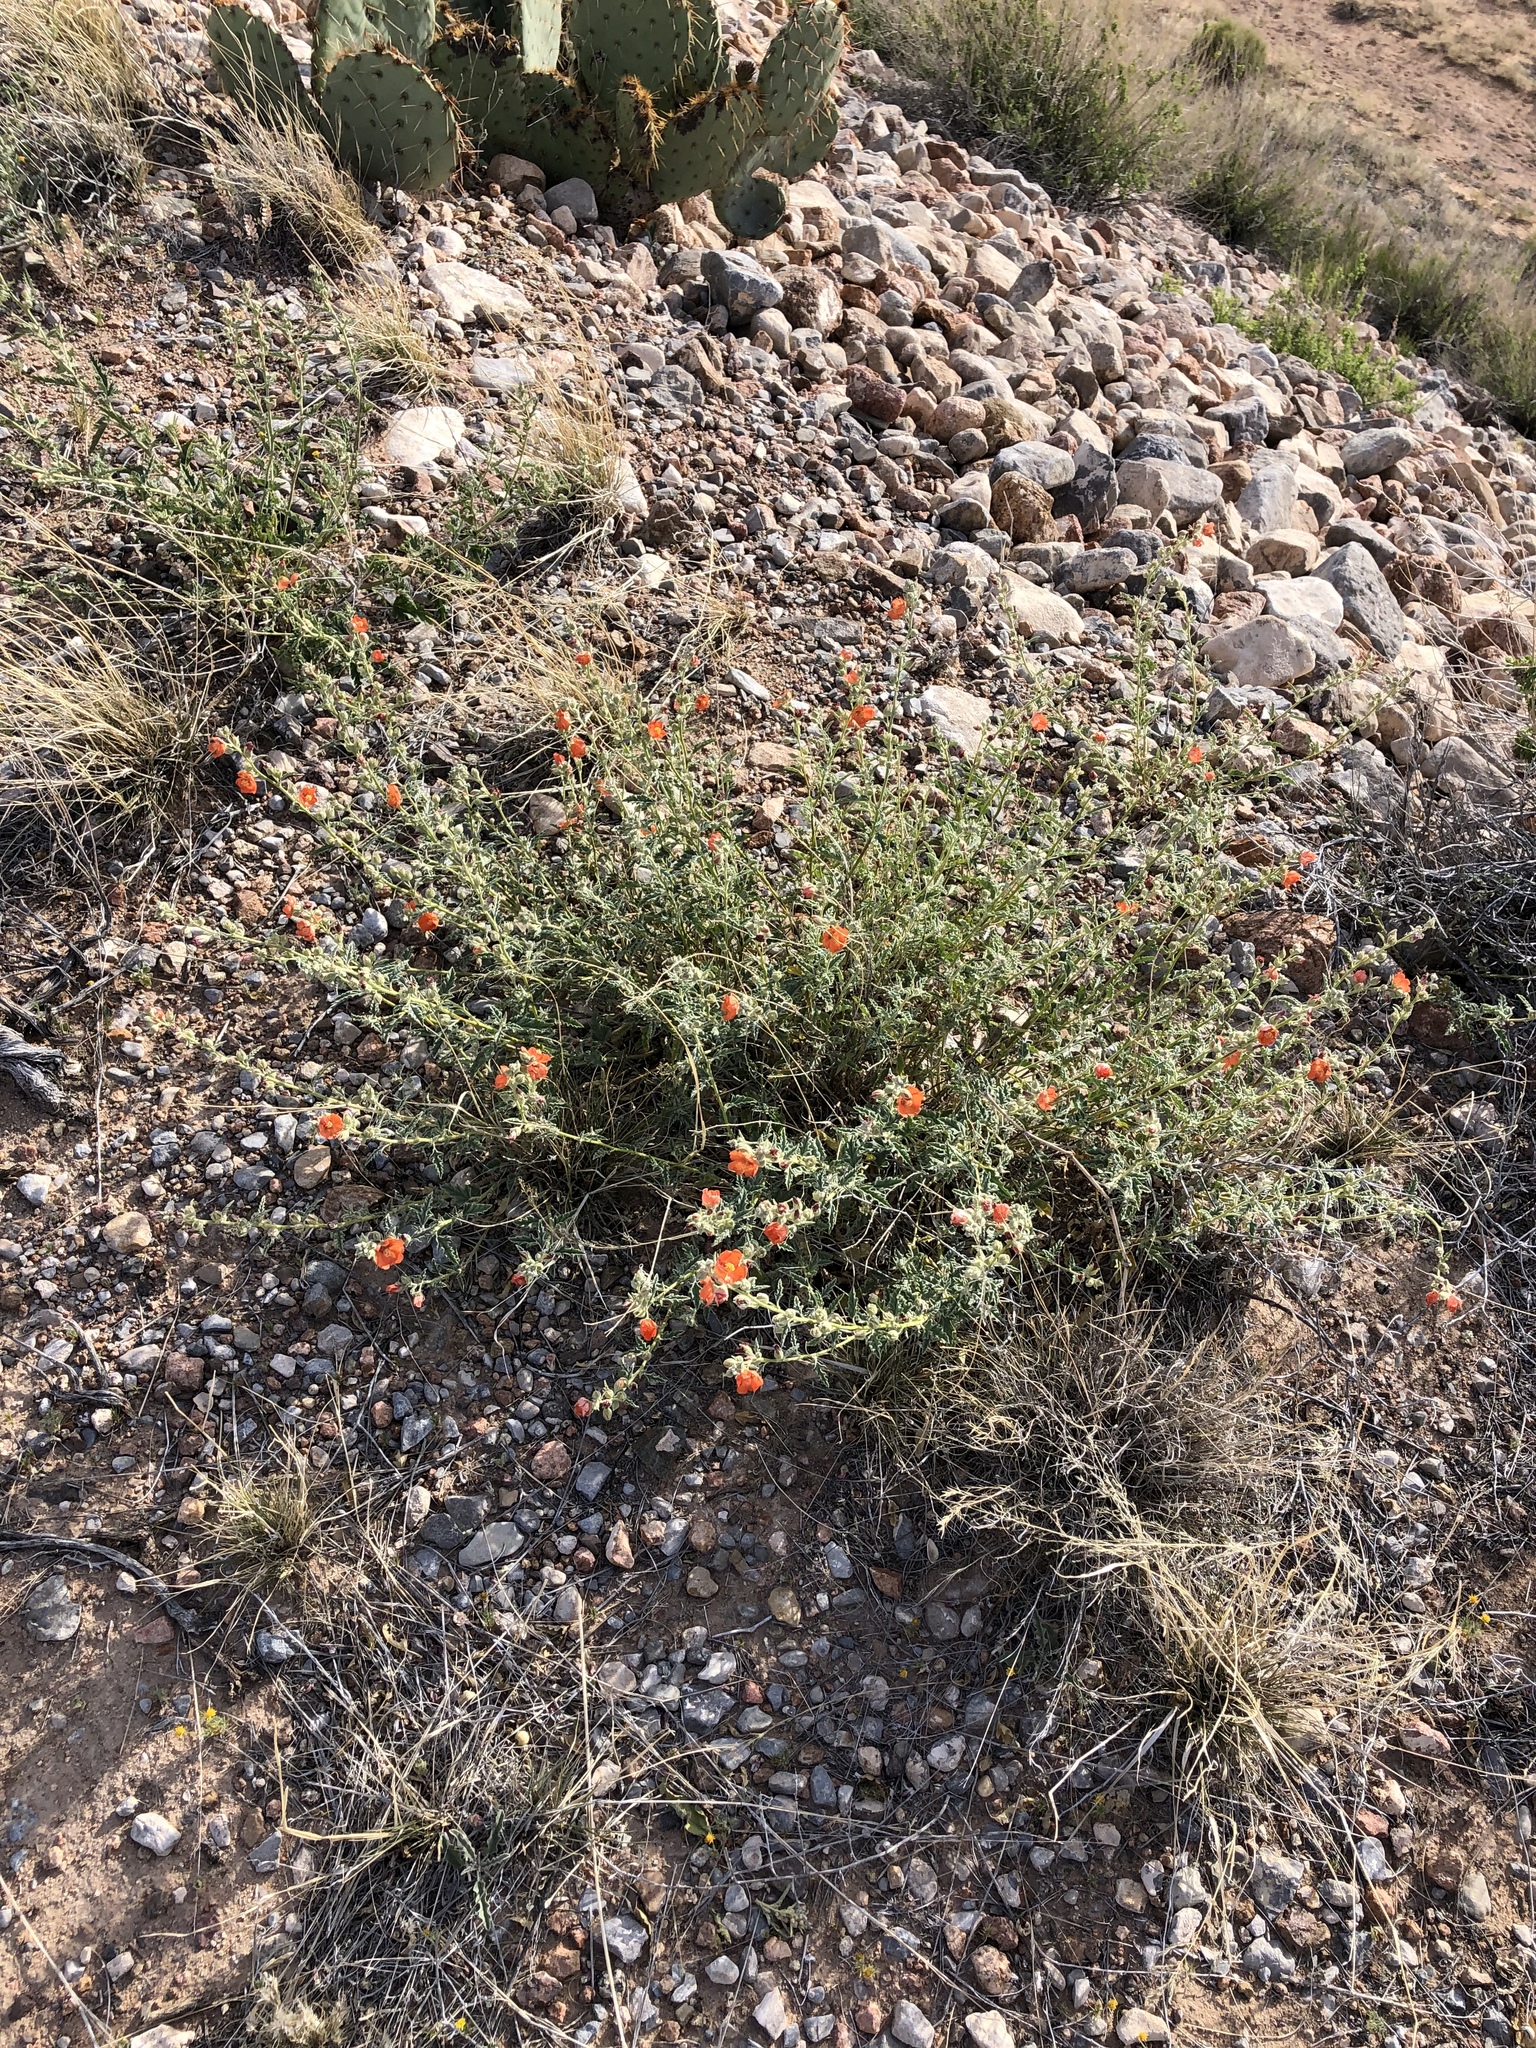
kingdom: Plantae
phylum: Tracheophyta
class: Magnoliopsida
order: Malvales
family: Malvaceae
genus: Sphaeralcea
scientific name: Sphaeralcea ambigua
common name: Apricot globe-mallow
